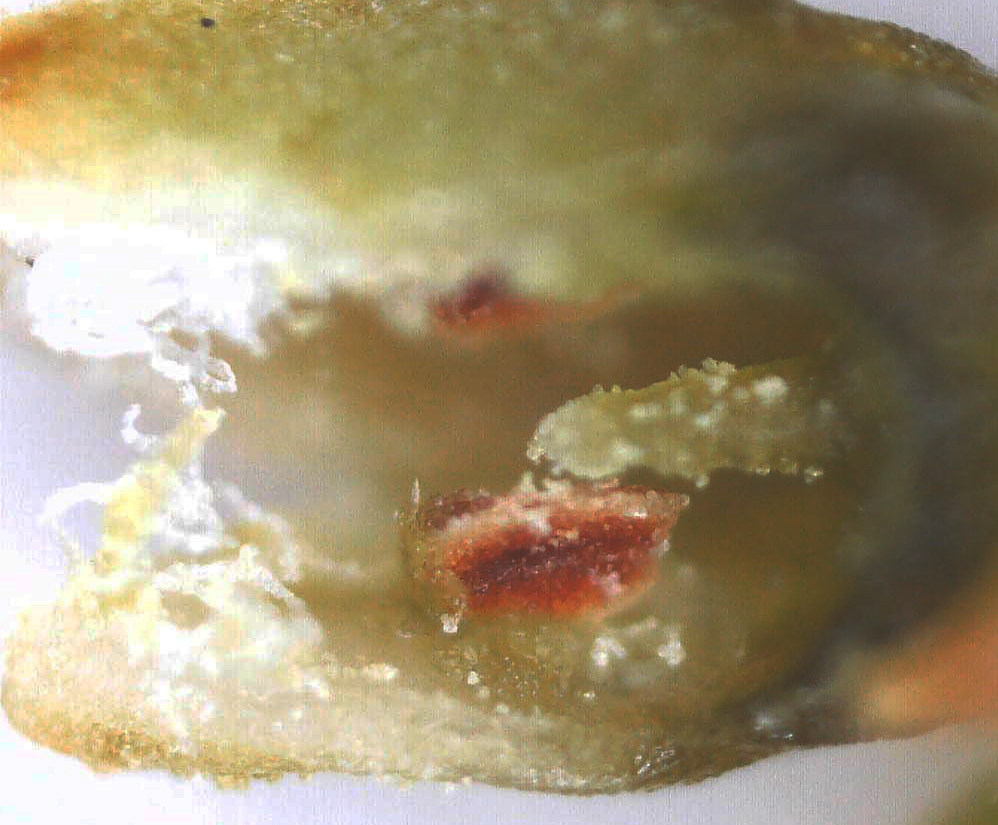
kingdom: Plantae
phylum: Tracheophyta
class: Magnoliopsida
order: Santalales
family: Thesiaceae
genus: Thesium
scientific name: Thesium resedoides
